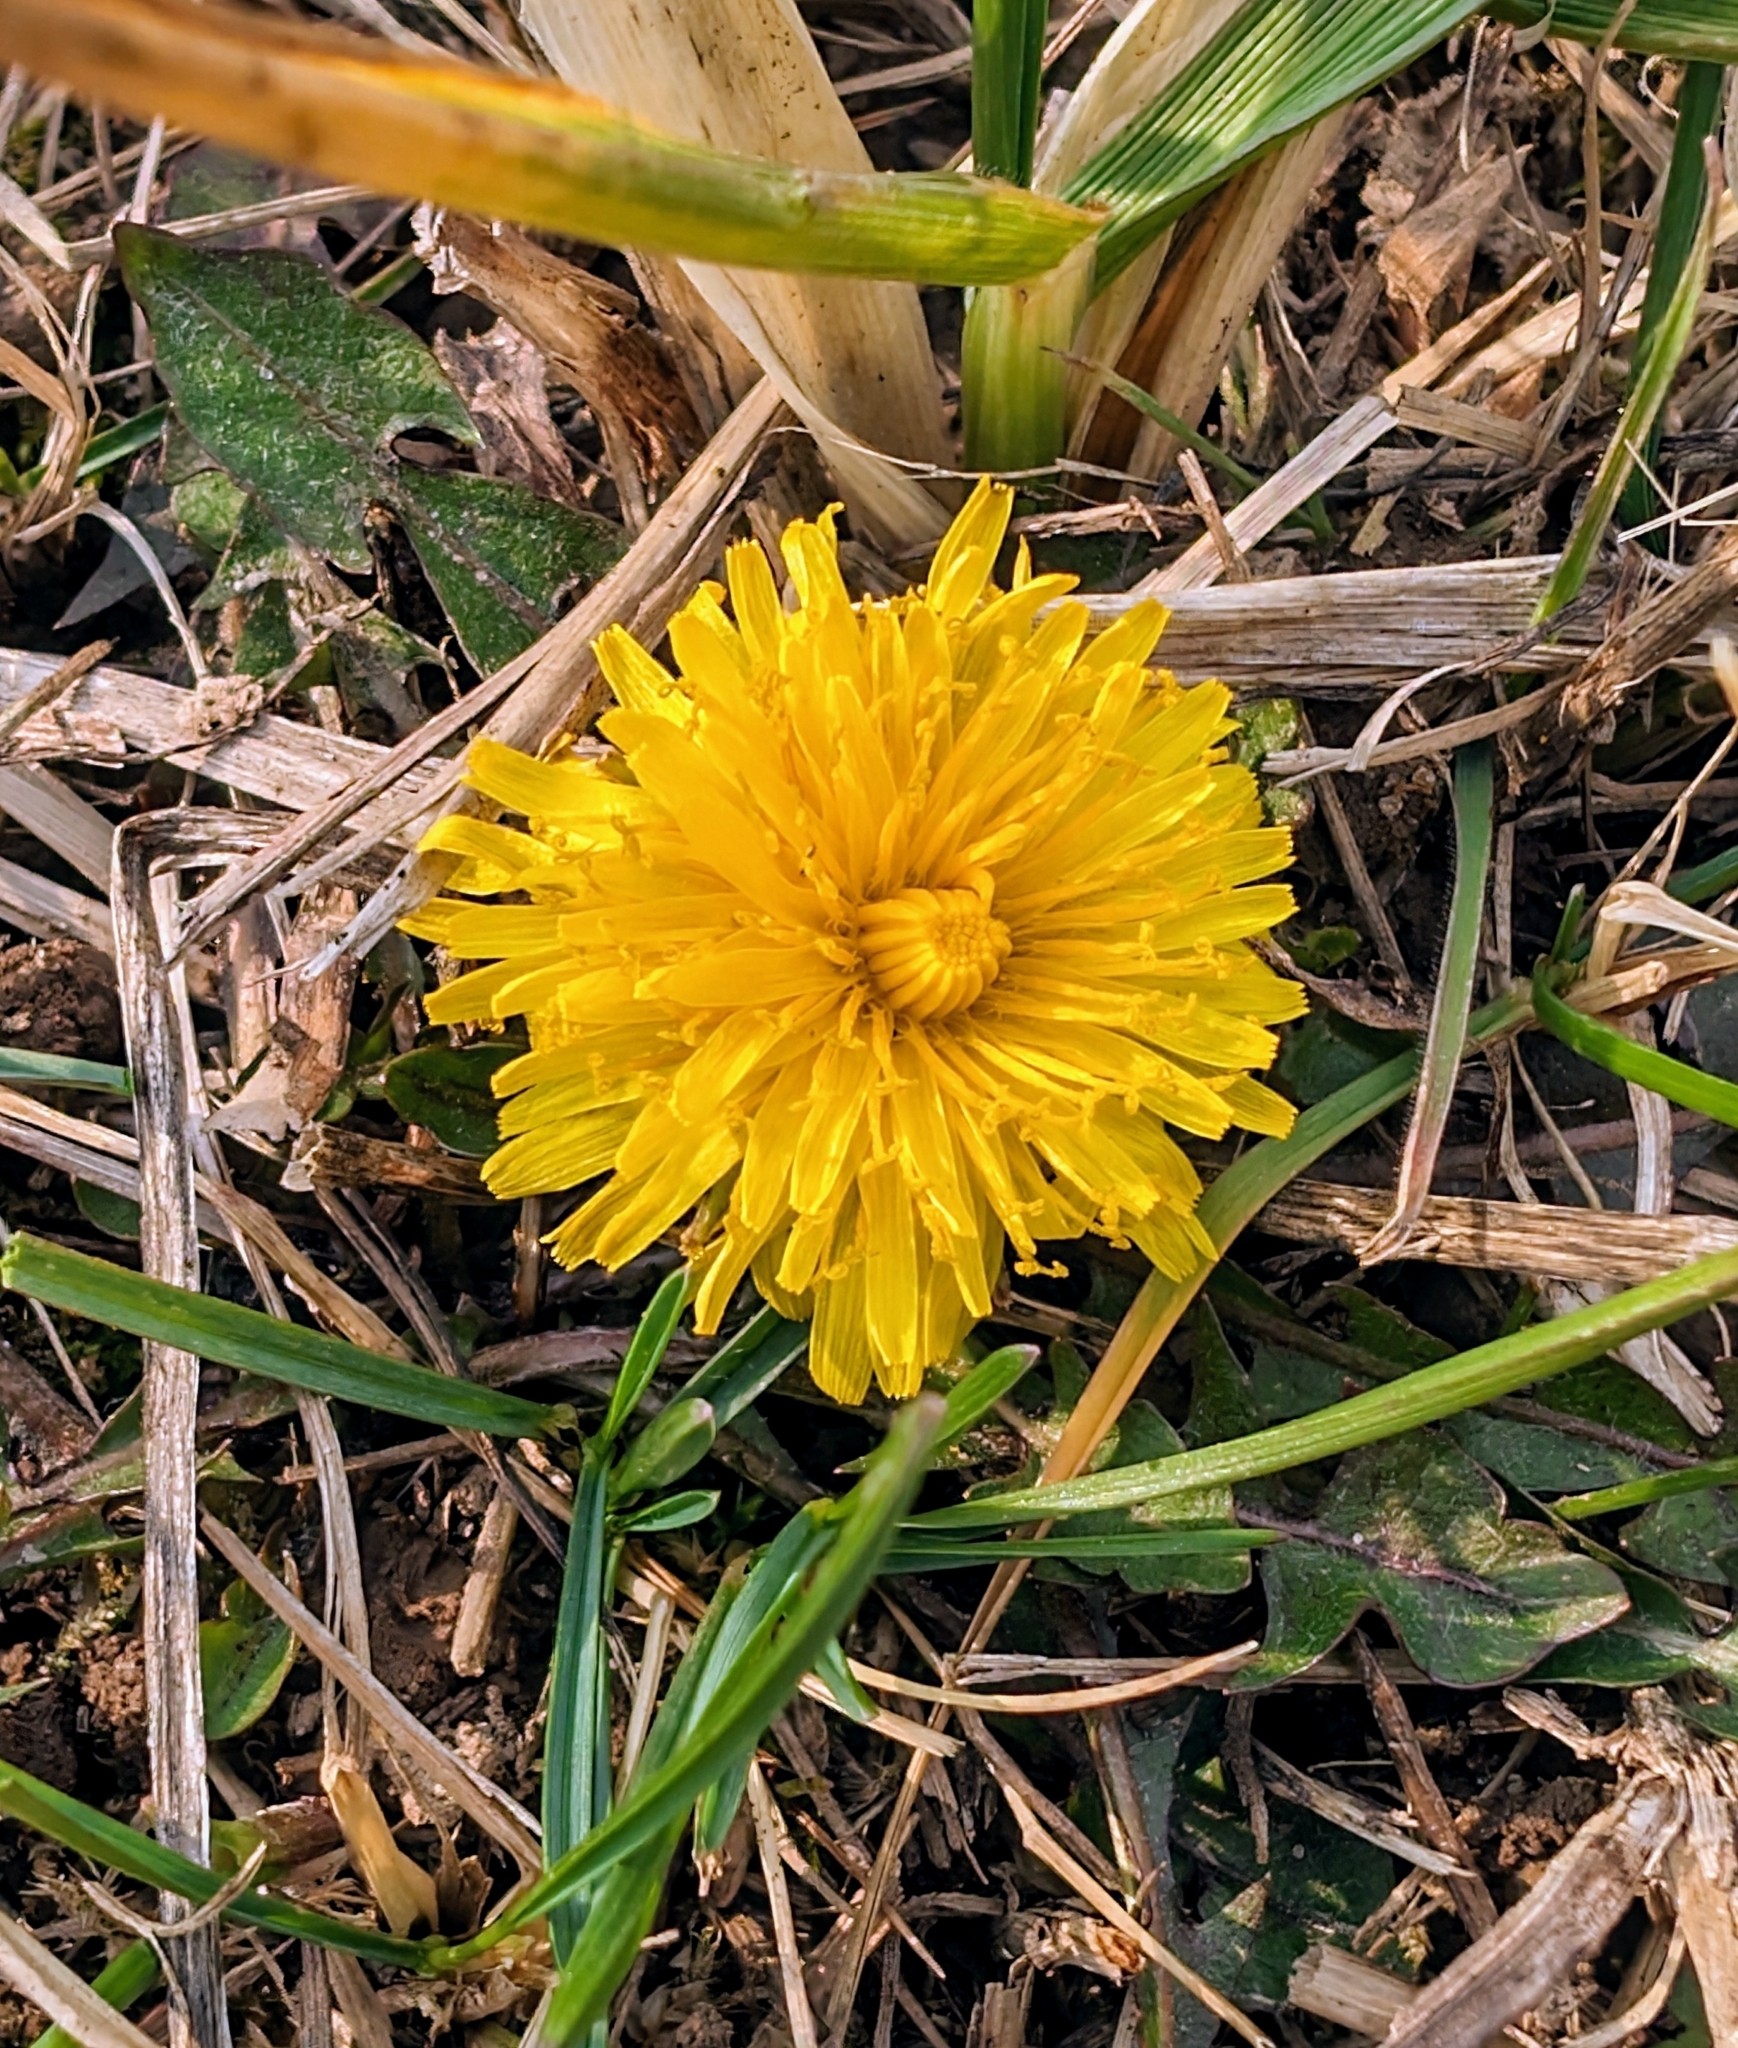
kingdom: Plantae
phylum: Tracheophyta
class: Magnoliopsida
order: Asterales
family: Asteraceae
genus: Taraxacum
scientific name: Taraxacum officinale
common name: Common dandelion
